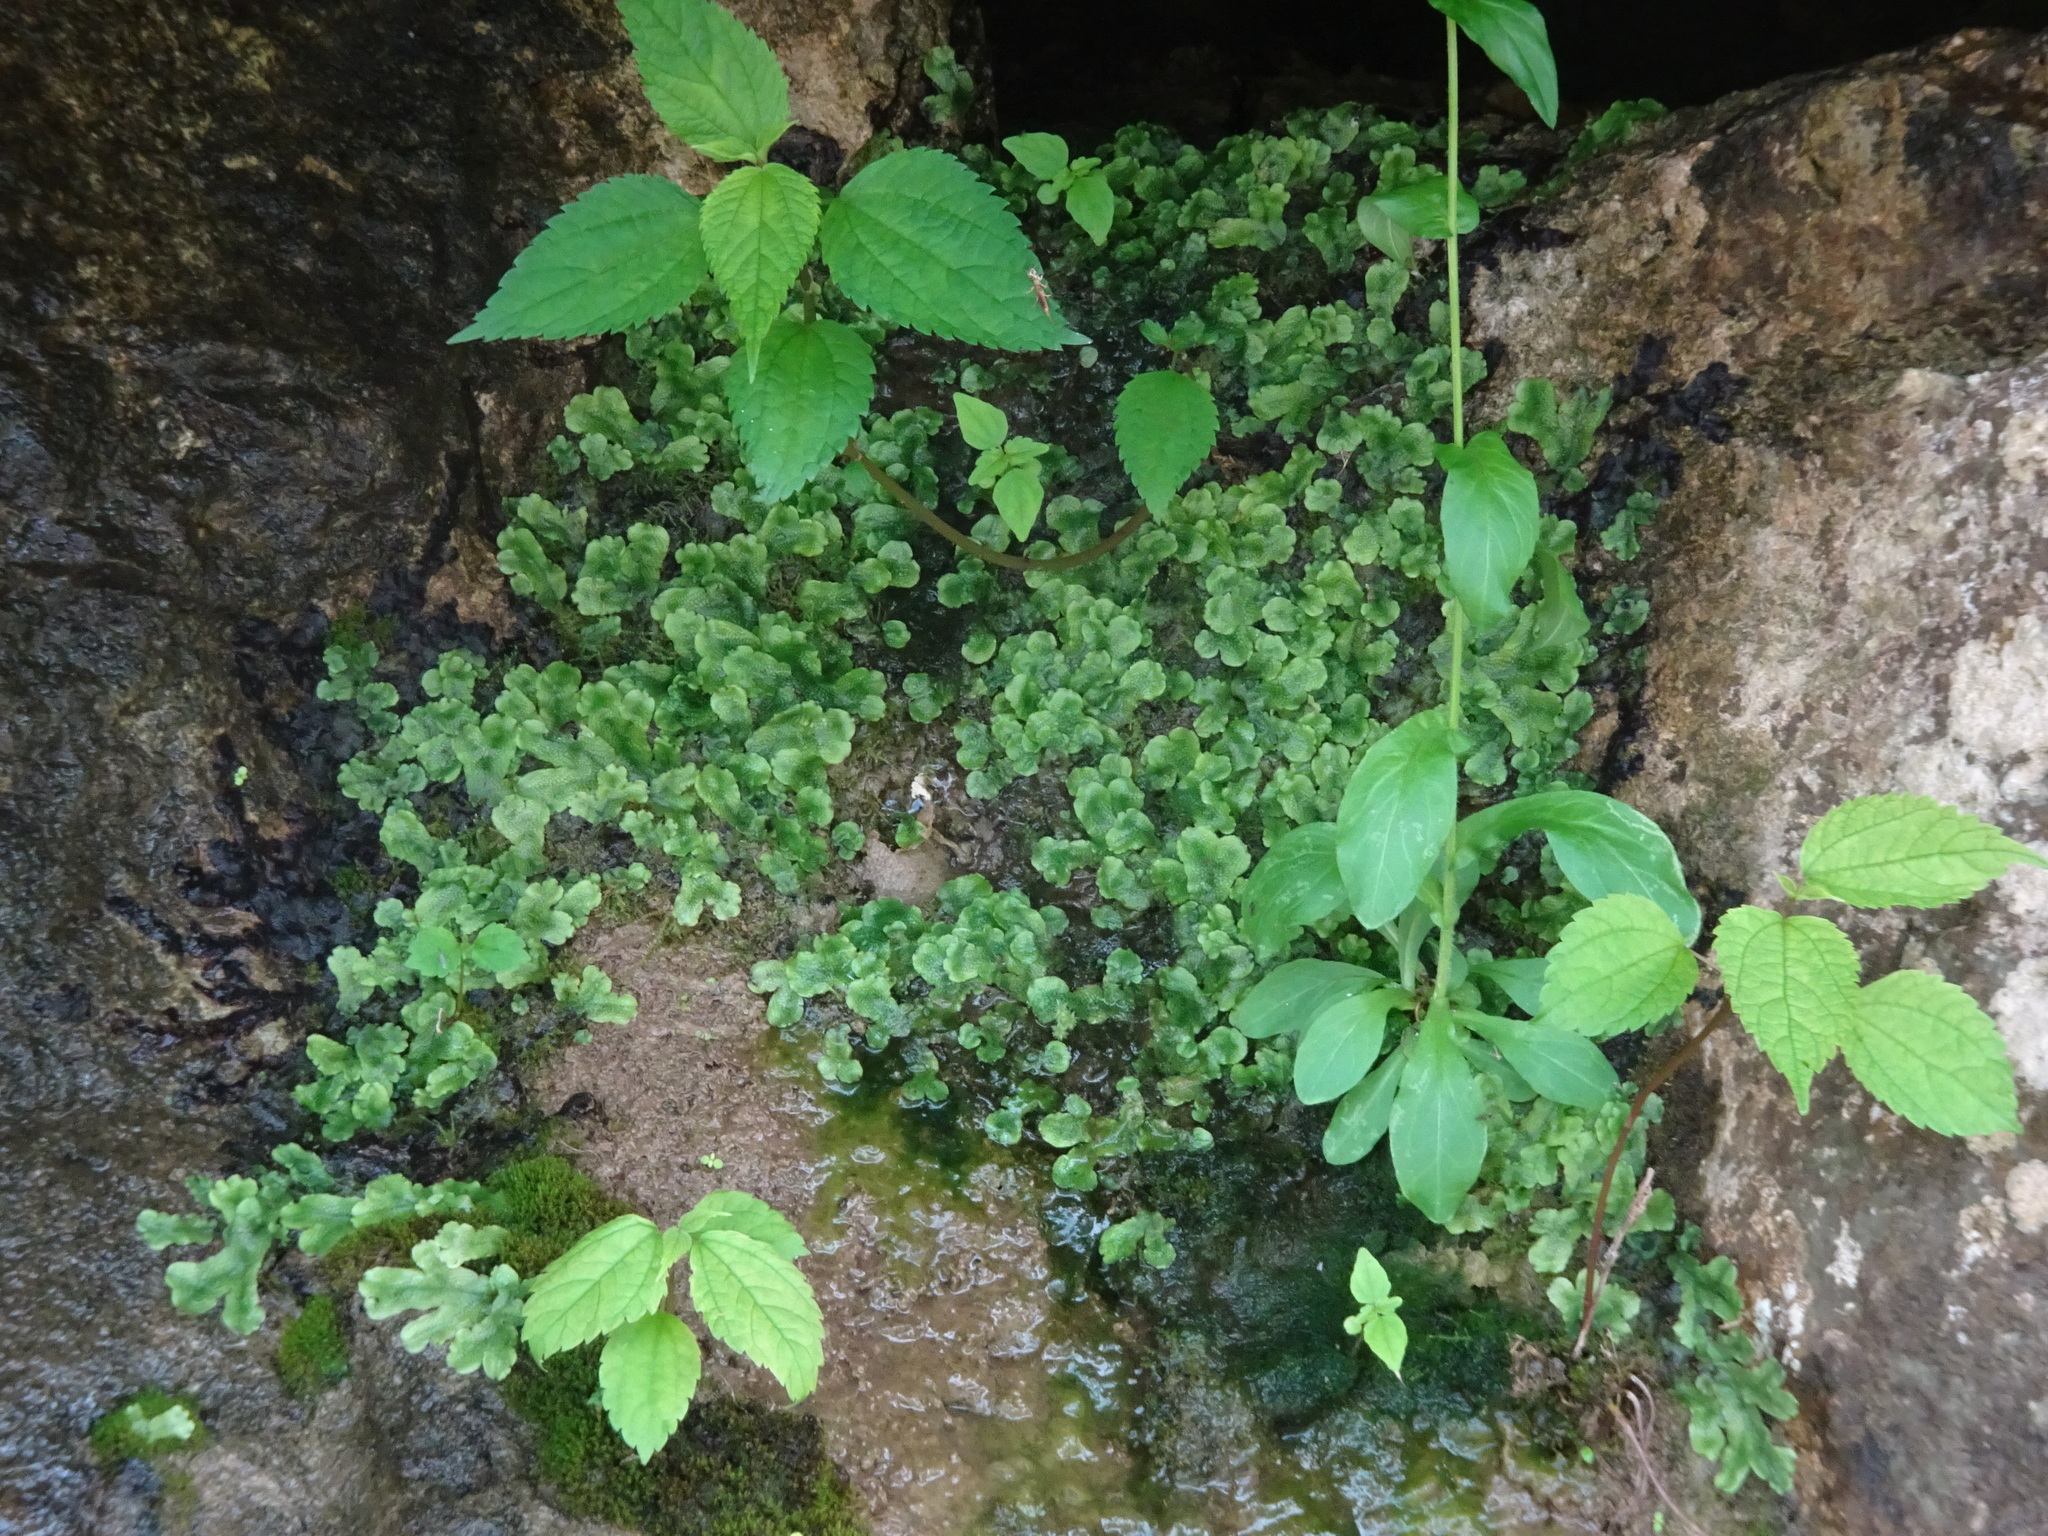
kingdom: Plantae
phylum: Marchantiophyta
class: Marchantiopsida
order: Marchantiales
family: Conocephalaceae
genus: Conocephalum
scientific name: Conocephalum salebrosum
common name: Cat-tongue liverwort
